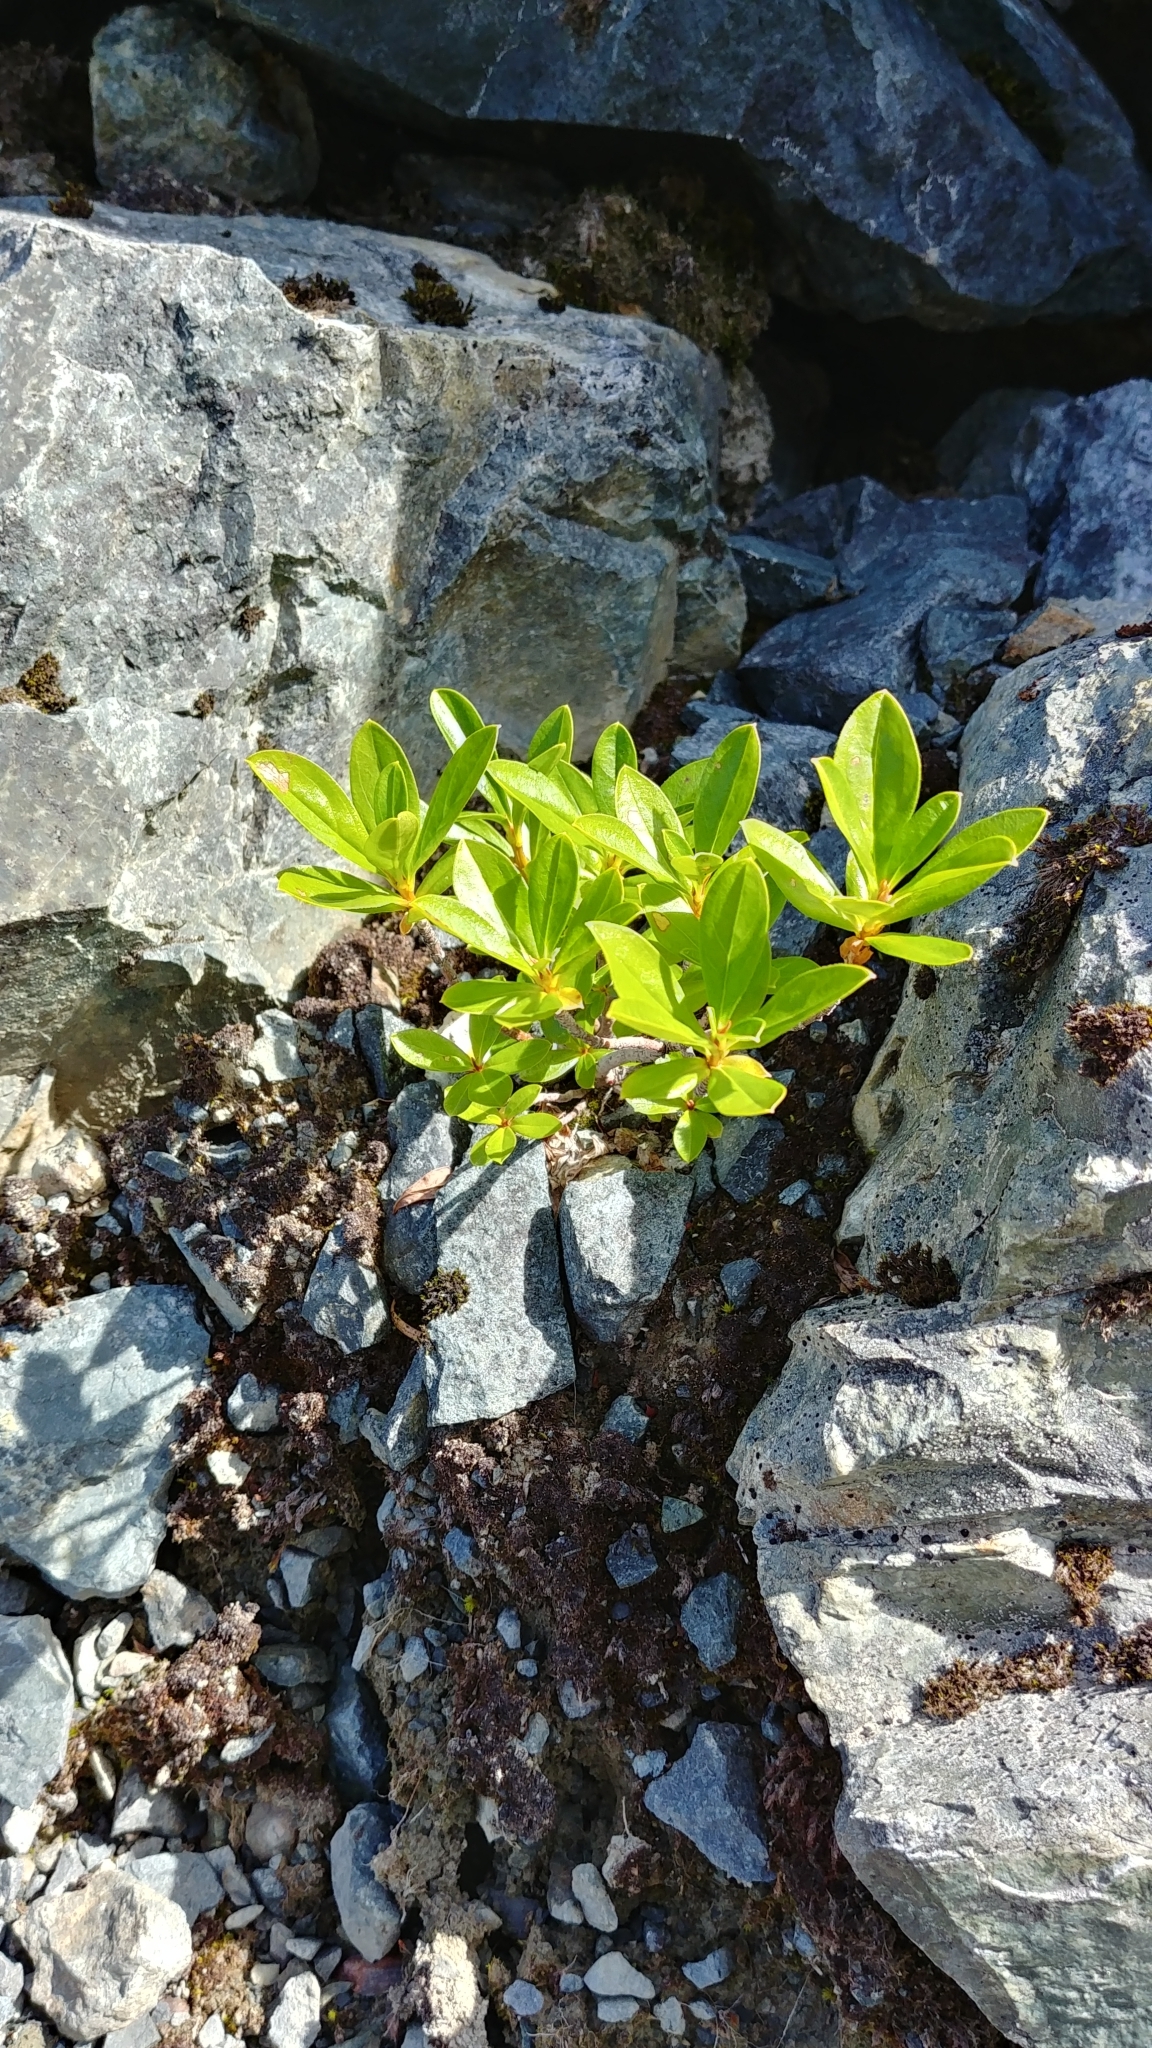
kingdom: Plantae
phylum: Tracheophyta
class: Magnoliopsida
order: Ericales
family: Ericaceae
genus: Elliottia
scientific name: Elliottia pyroliflora
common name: Copperbush
